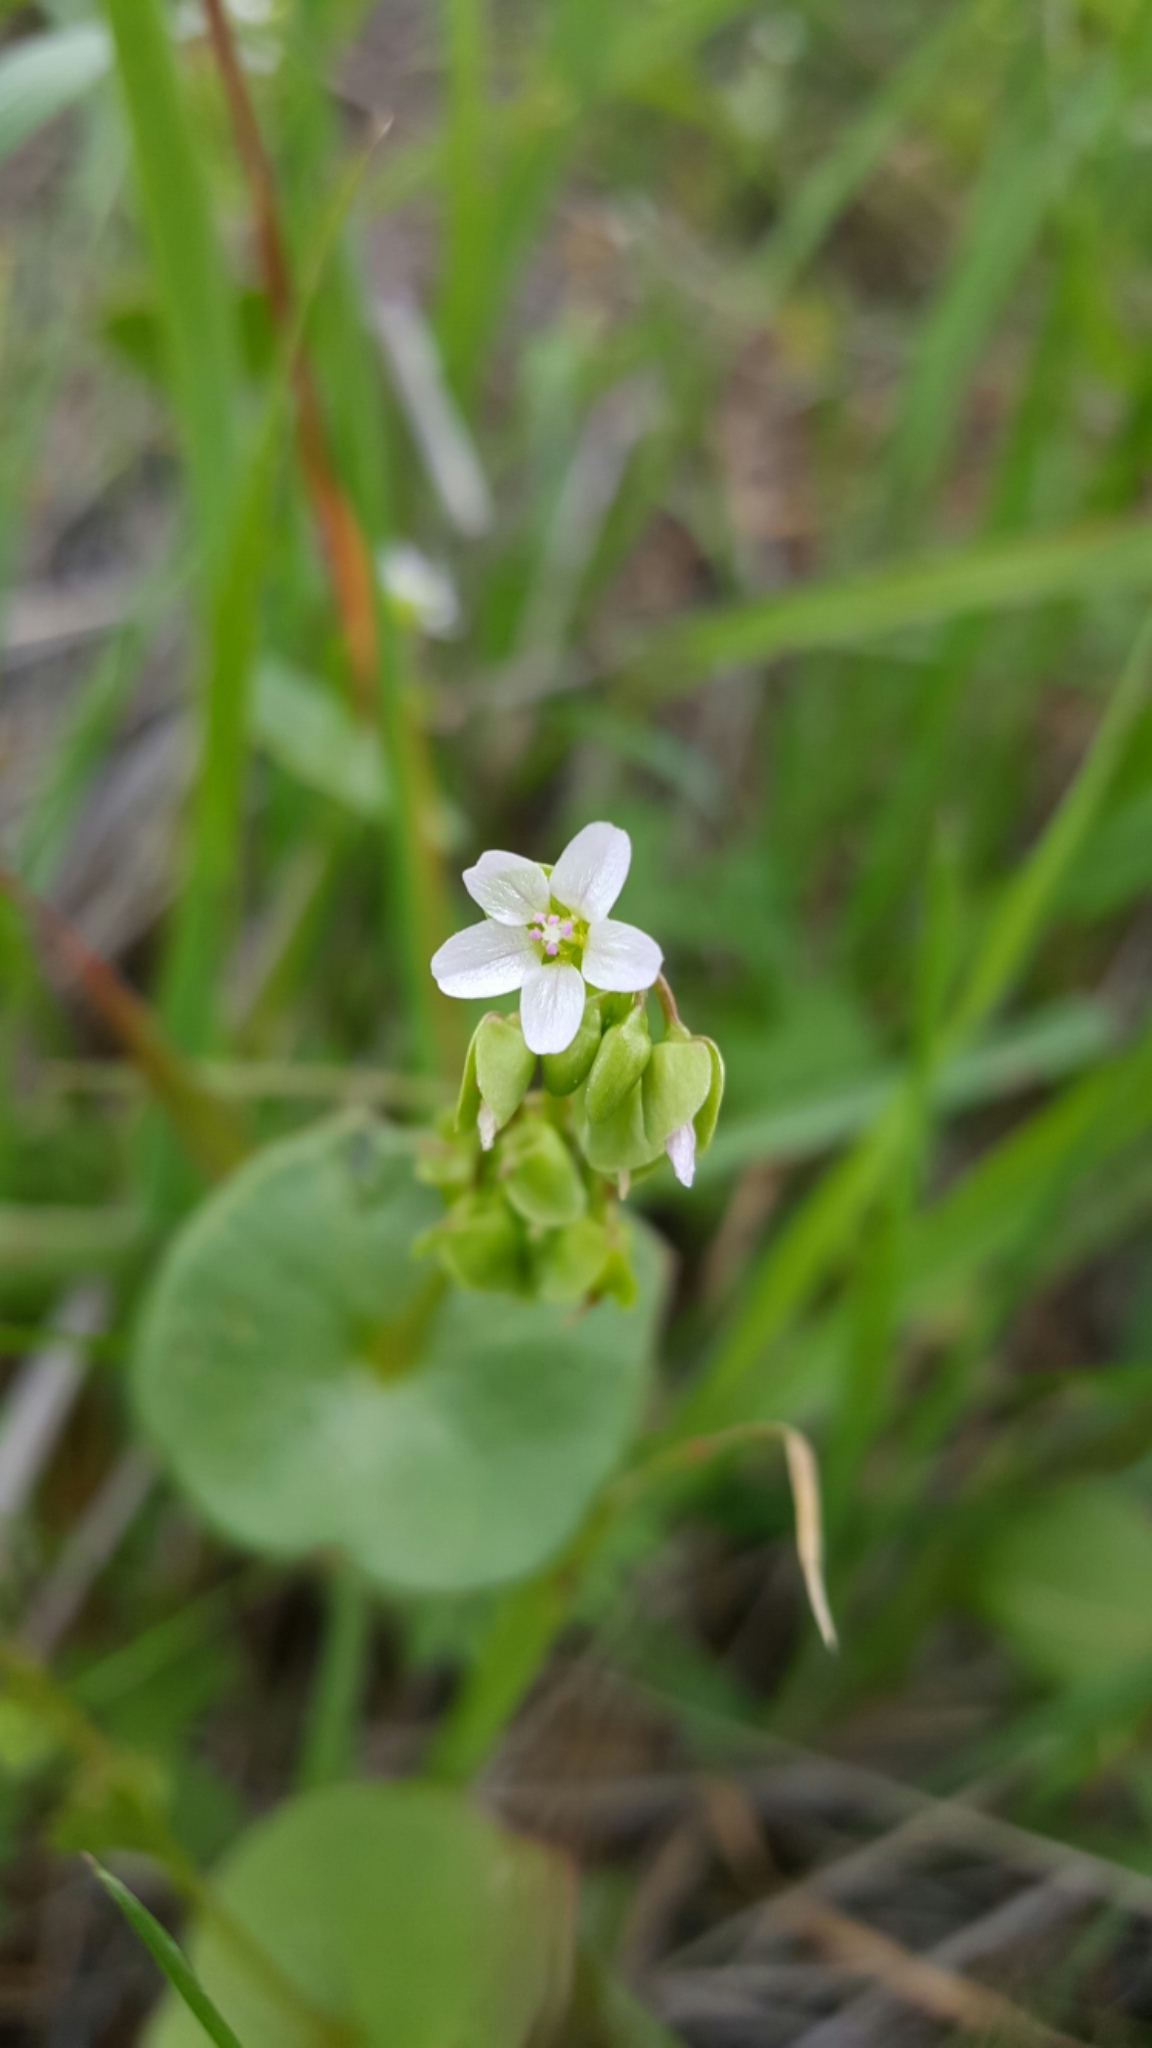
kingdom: Plantae
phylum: Tracheophyta
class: Magnoliopsida
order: Caryophyllales
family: Montiaceae
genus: Claytonia
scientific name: Claytonia perfoliata
